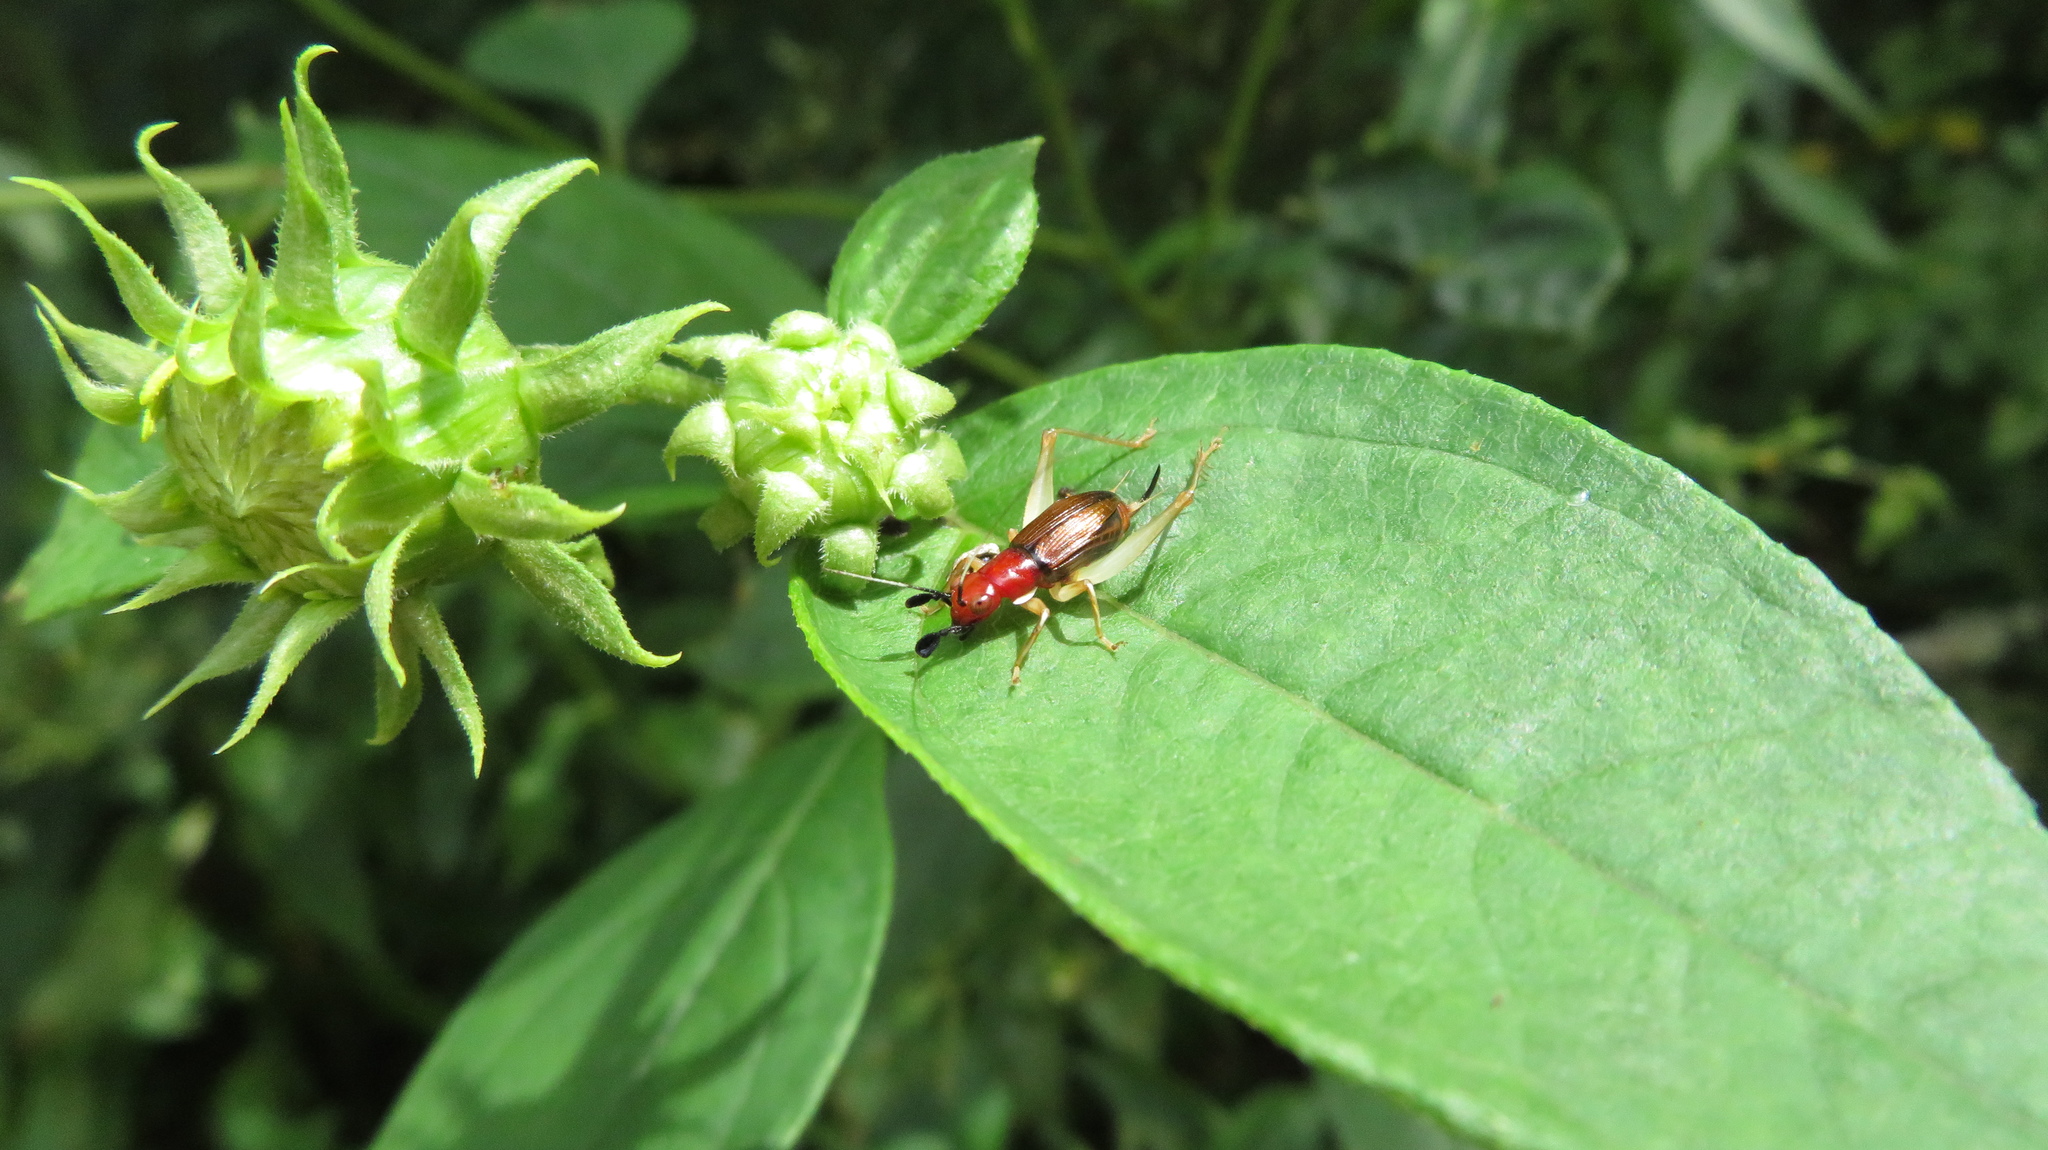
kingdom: Animalia
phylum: Arthropoda
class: Insecta
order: Orthoptera
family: Trigonidiidae
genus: Phyllopalpus
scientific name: Phyllopalpus pulchellus
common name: Handsome trig
